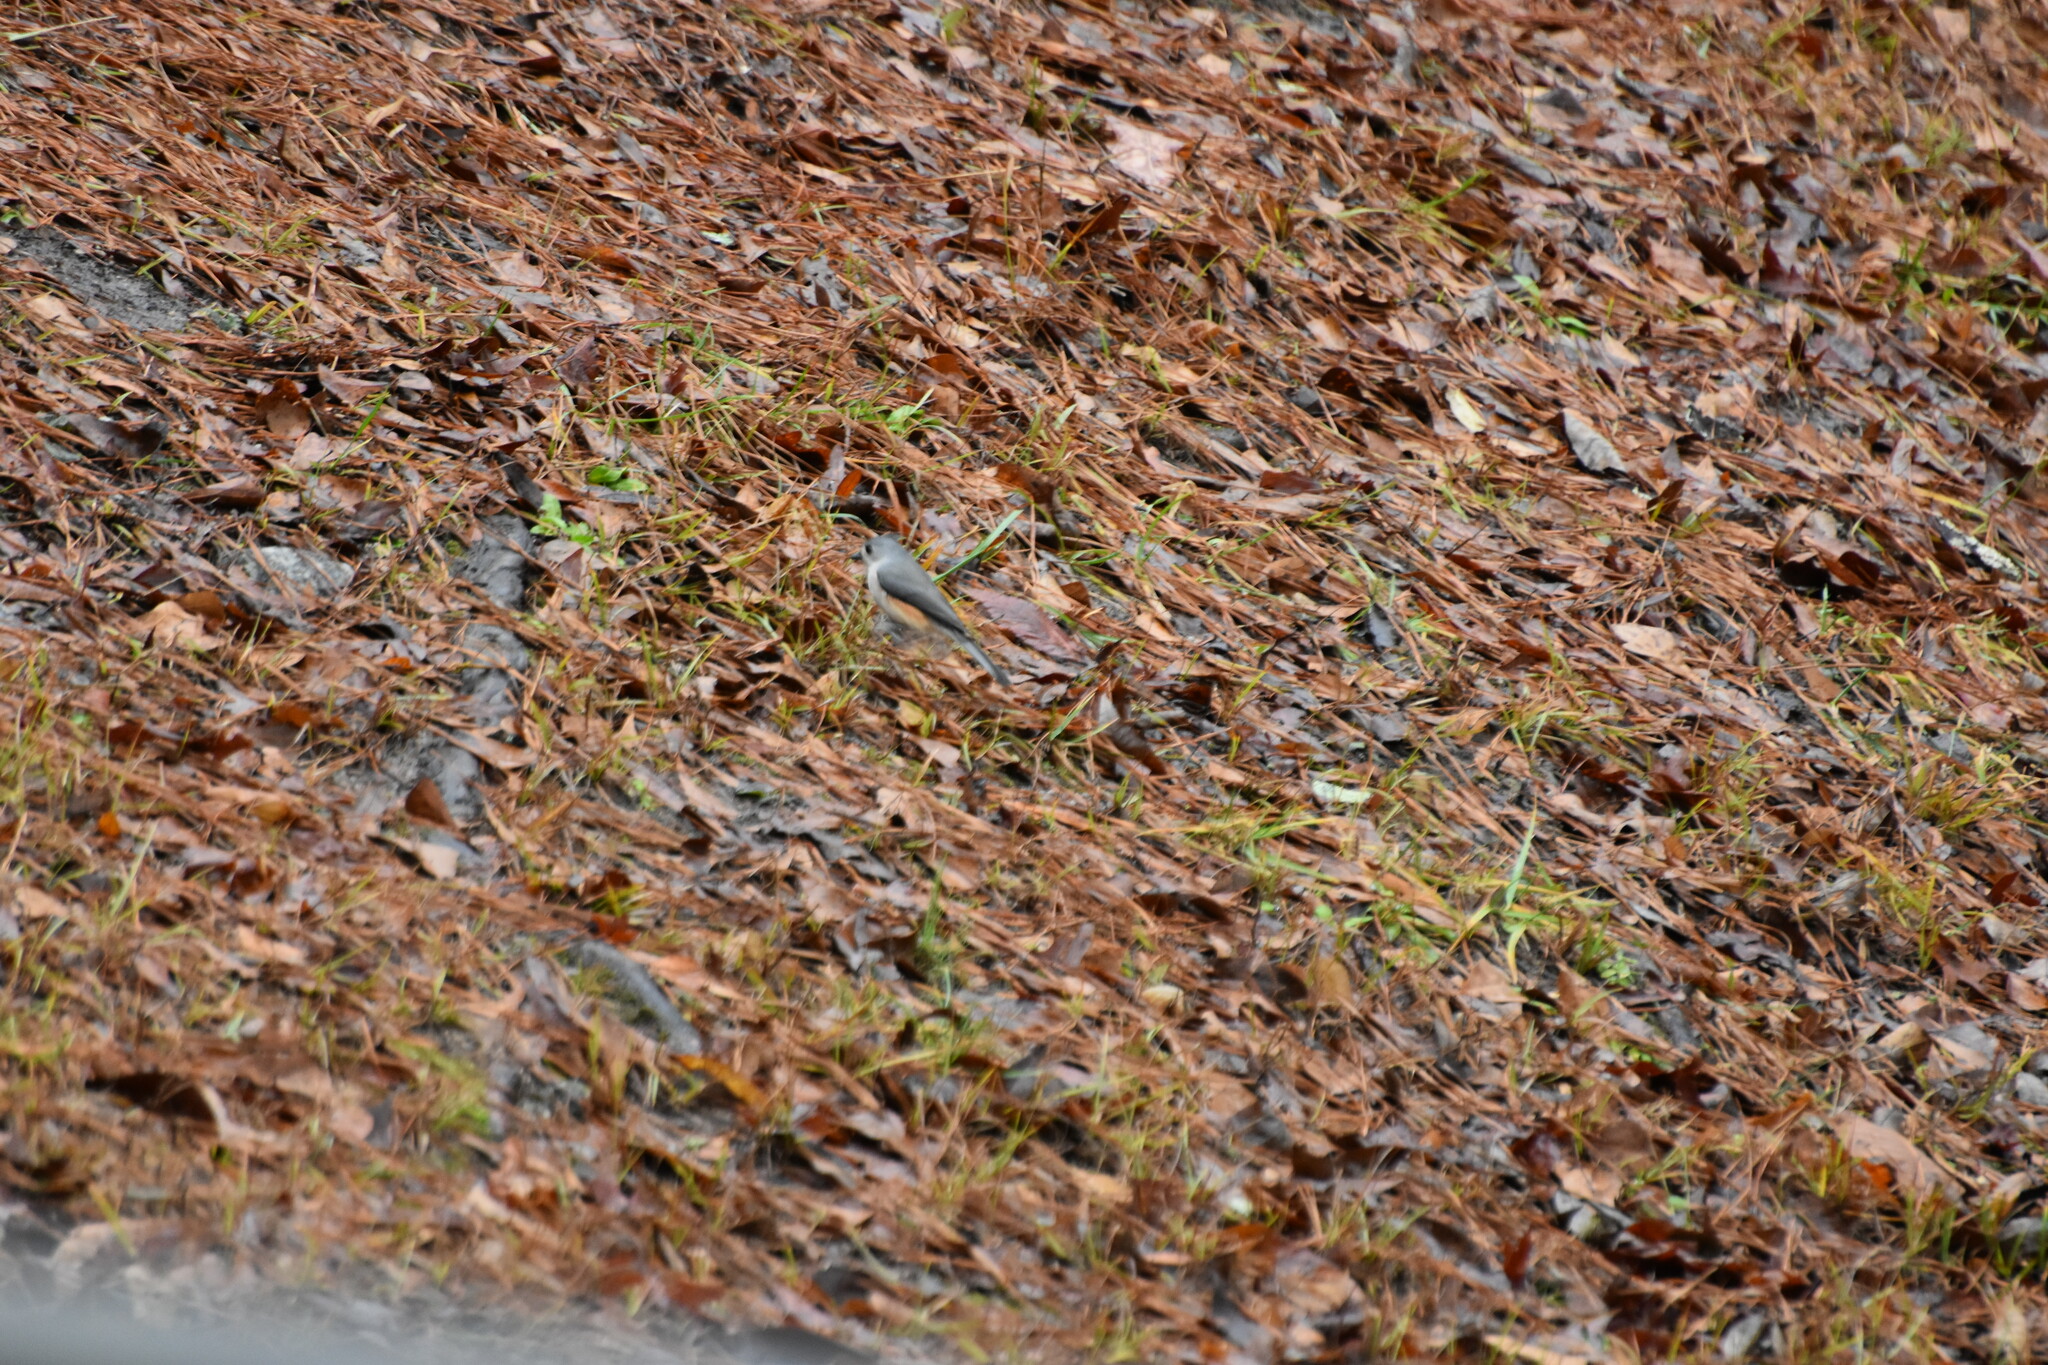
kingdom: Animalia
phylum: Chordata
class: Aves
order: Passeriformes
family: Paridae
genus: Baeolophus
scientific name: Baeolophus bicolor
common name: Tufted titmouse
